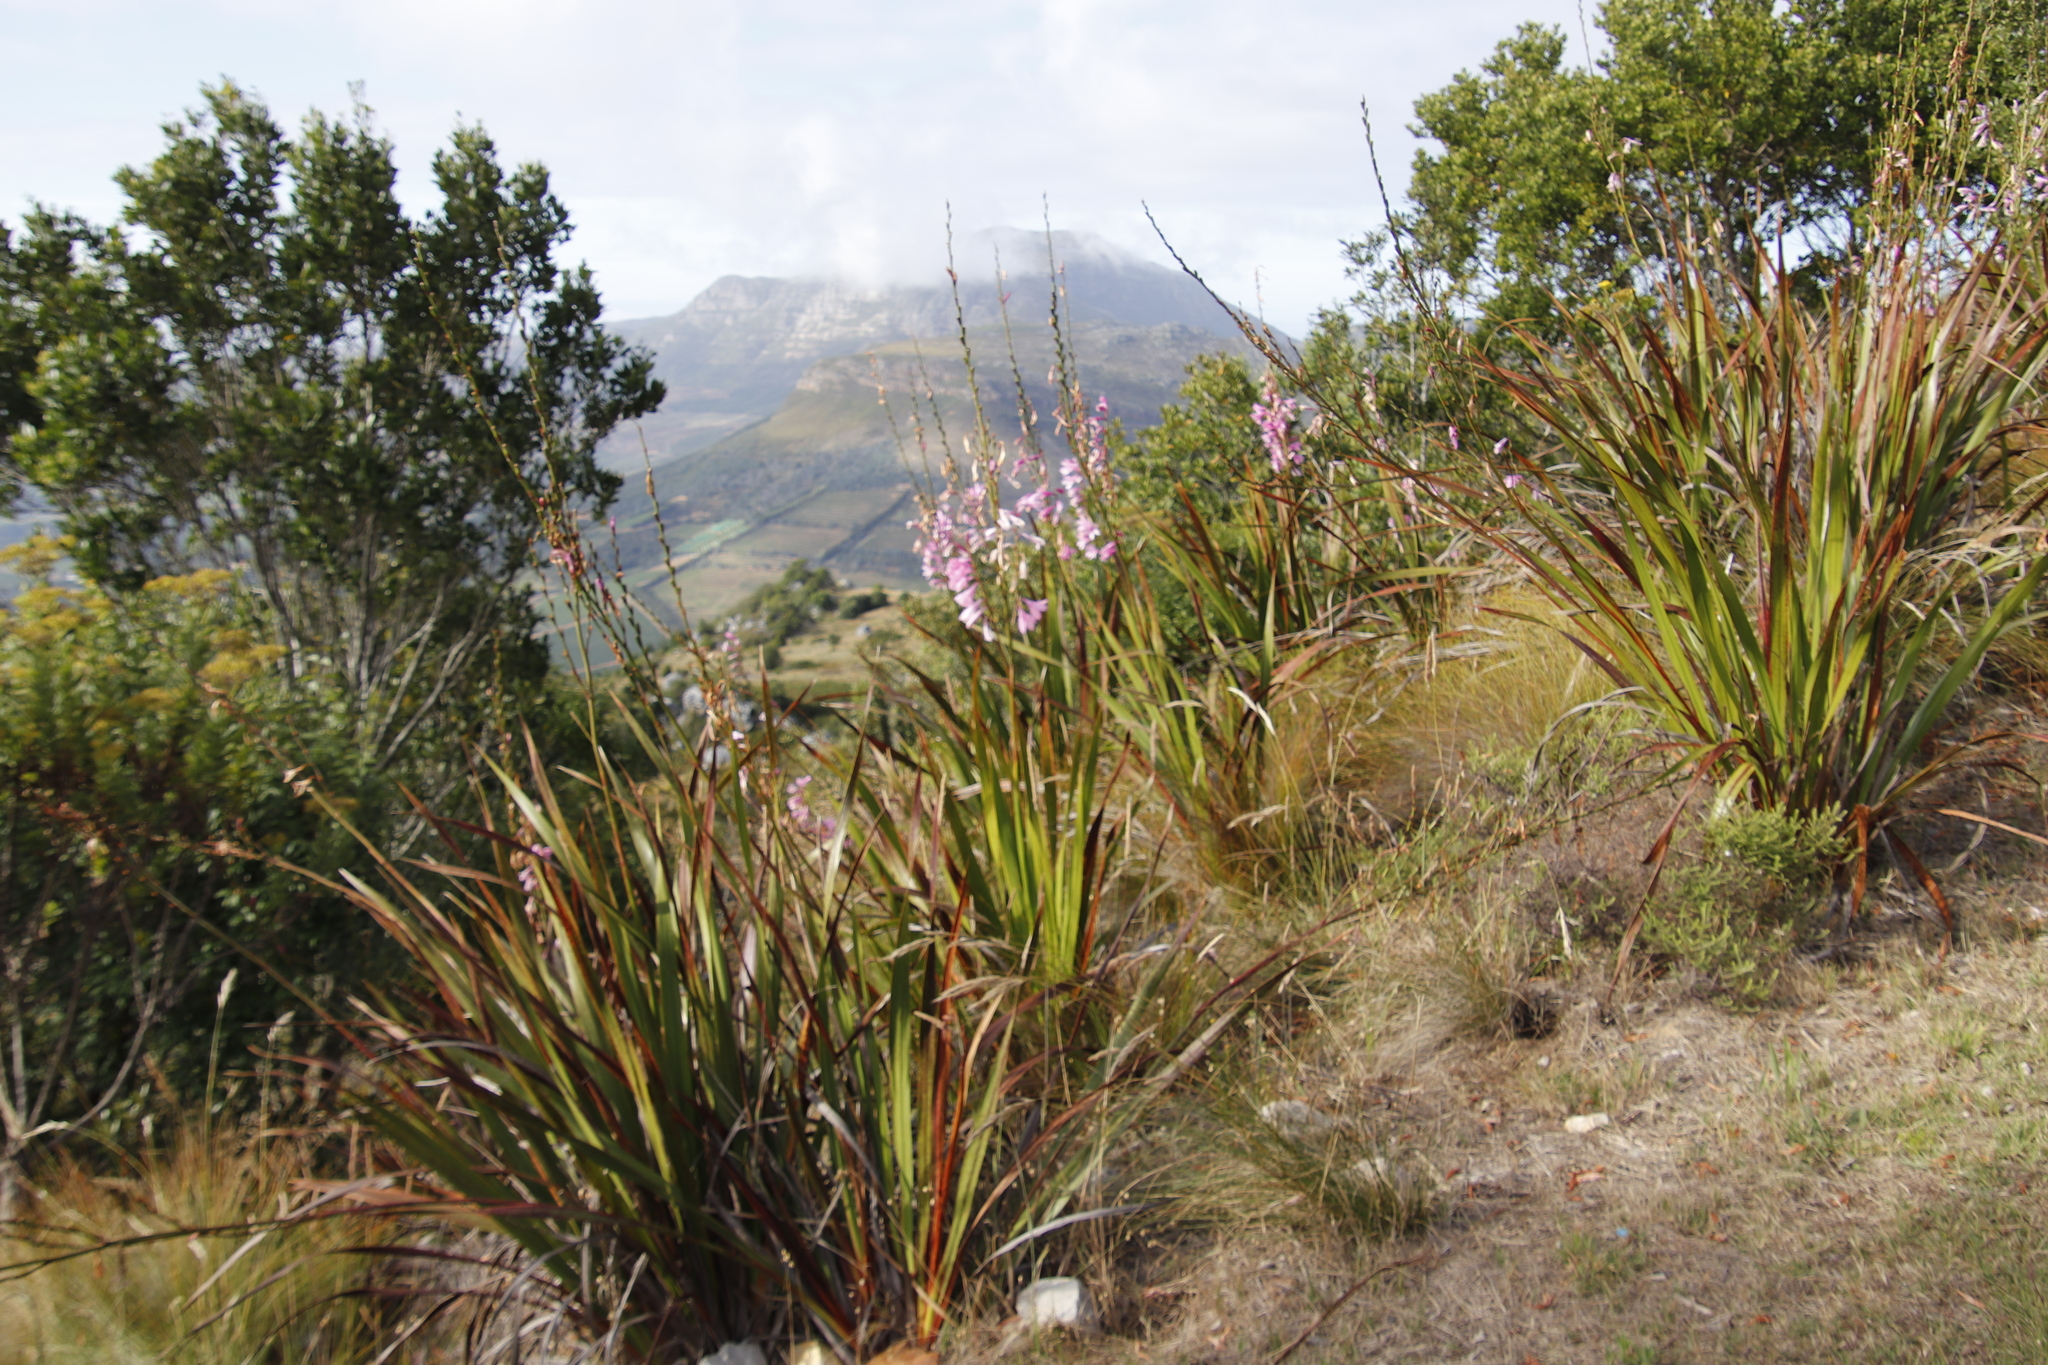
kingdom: Plantae
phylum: Tracheophyta
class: Liliopsida
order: Asparagales
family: Iridaceae
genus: Watsonia
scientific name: Watsonia borbonica
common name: Bugle-lily
